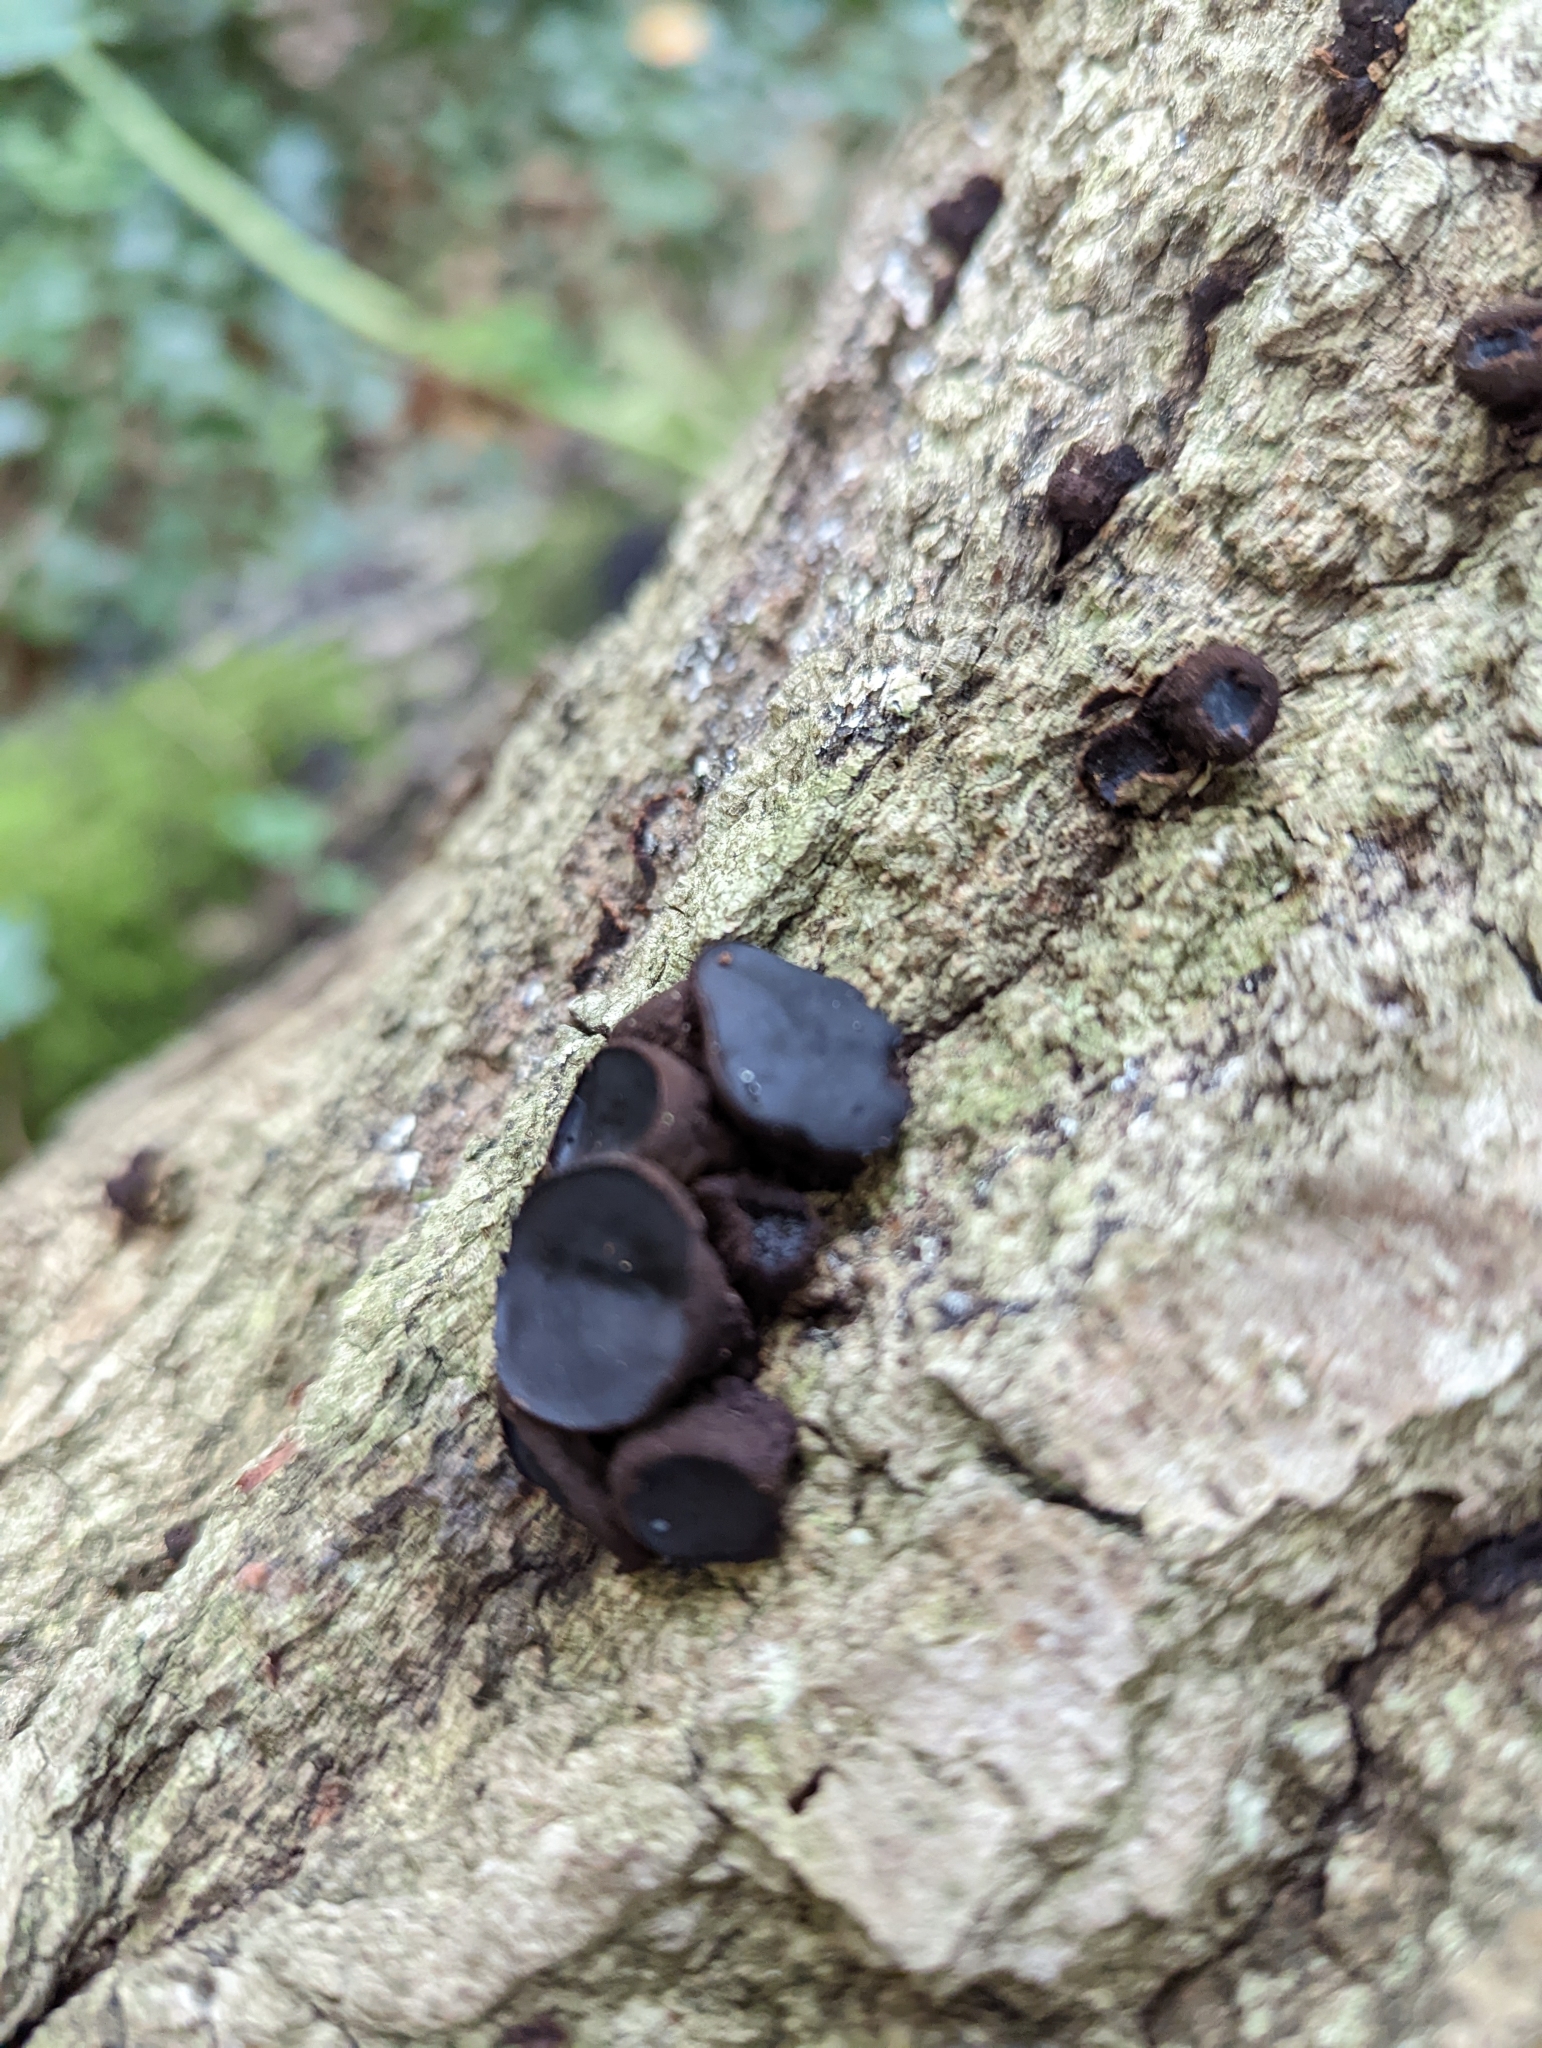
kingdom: Fungi
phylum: Ascomycota
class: Leotiomycetes
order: Phacidiales
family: Phacidiaceae
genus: Bulgaria
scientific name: Bulgaria inquinans
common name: Black bulgar
